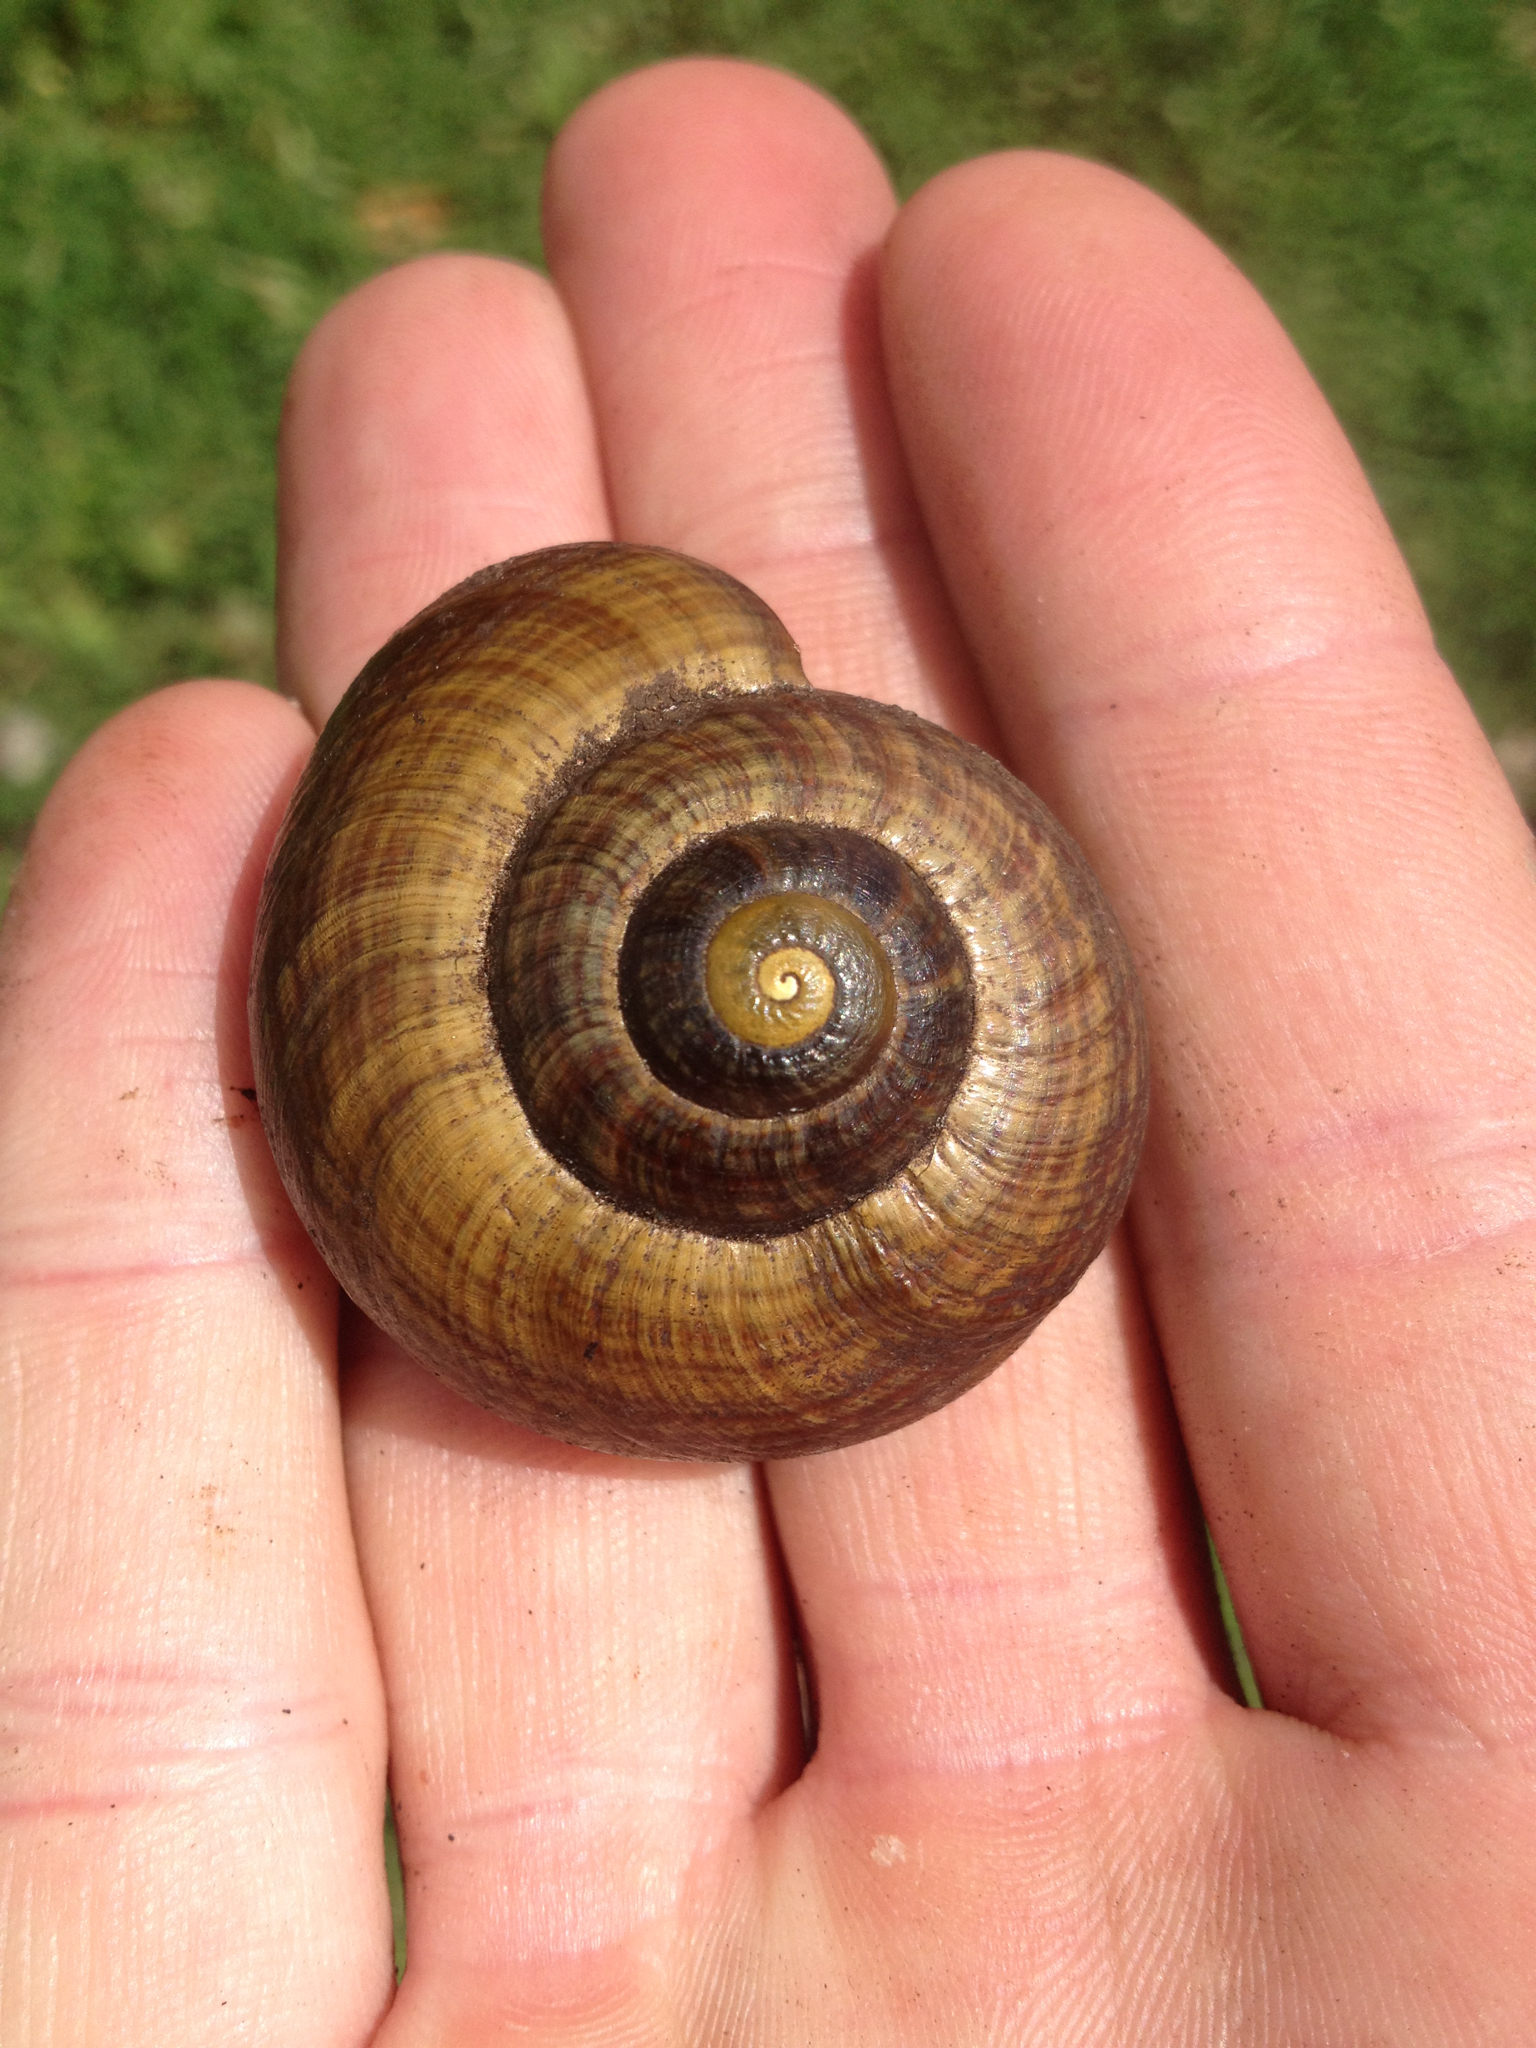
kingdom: Animalia
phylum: Mollusca
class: Gastropoda
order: Stylommatophora
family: Rhytididae
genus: Powelliphanta
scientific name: Powelliphanta traversi
